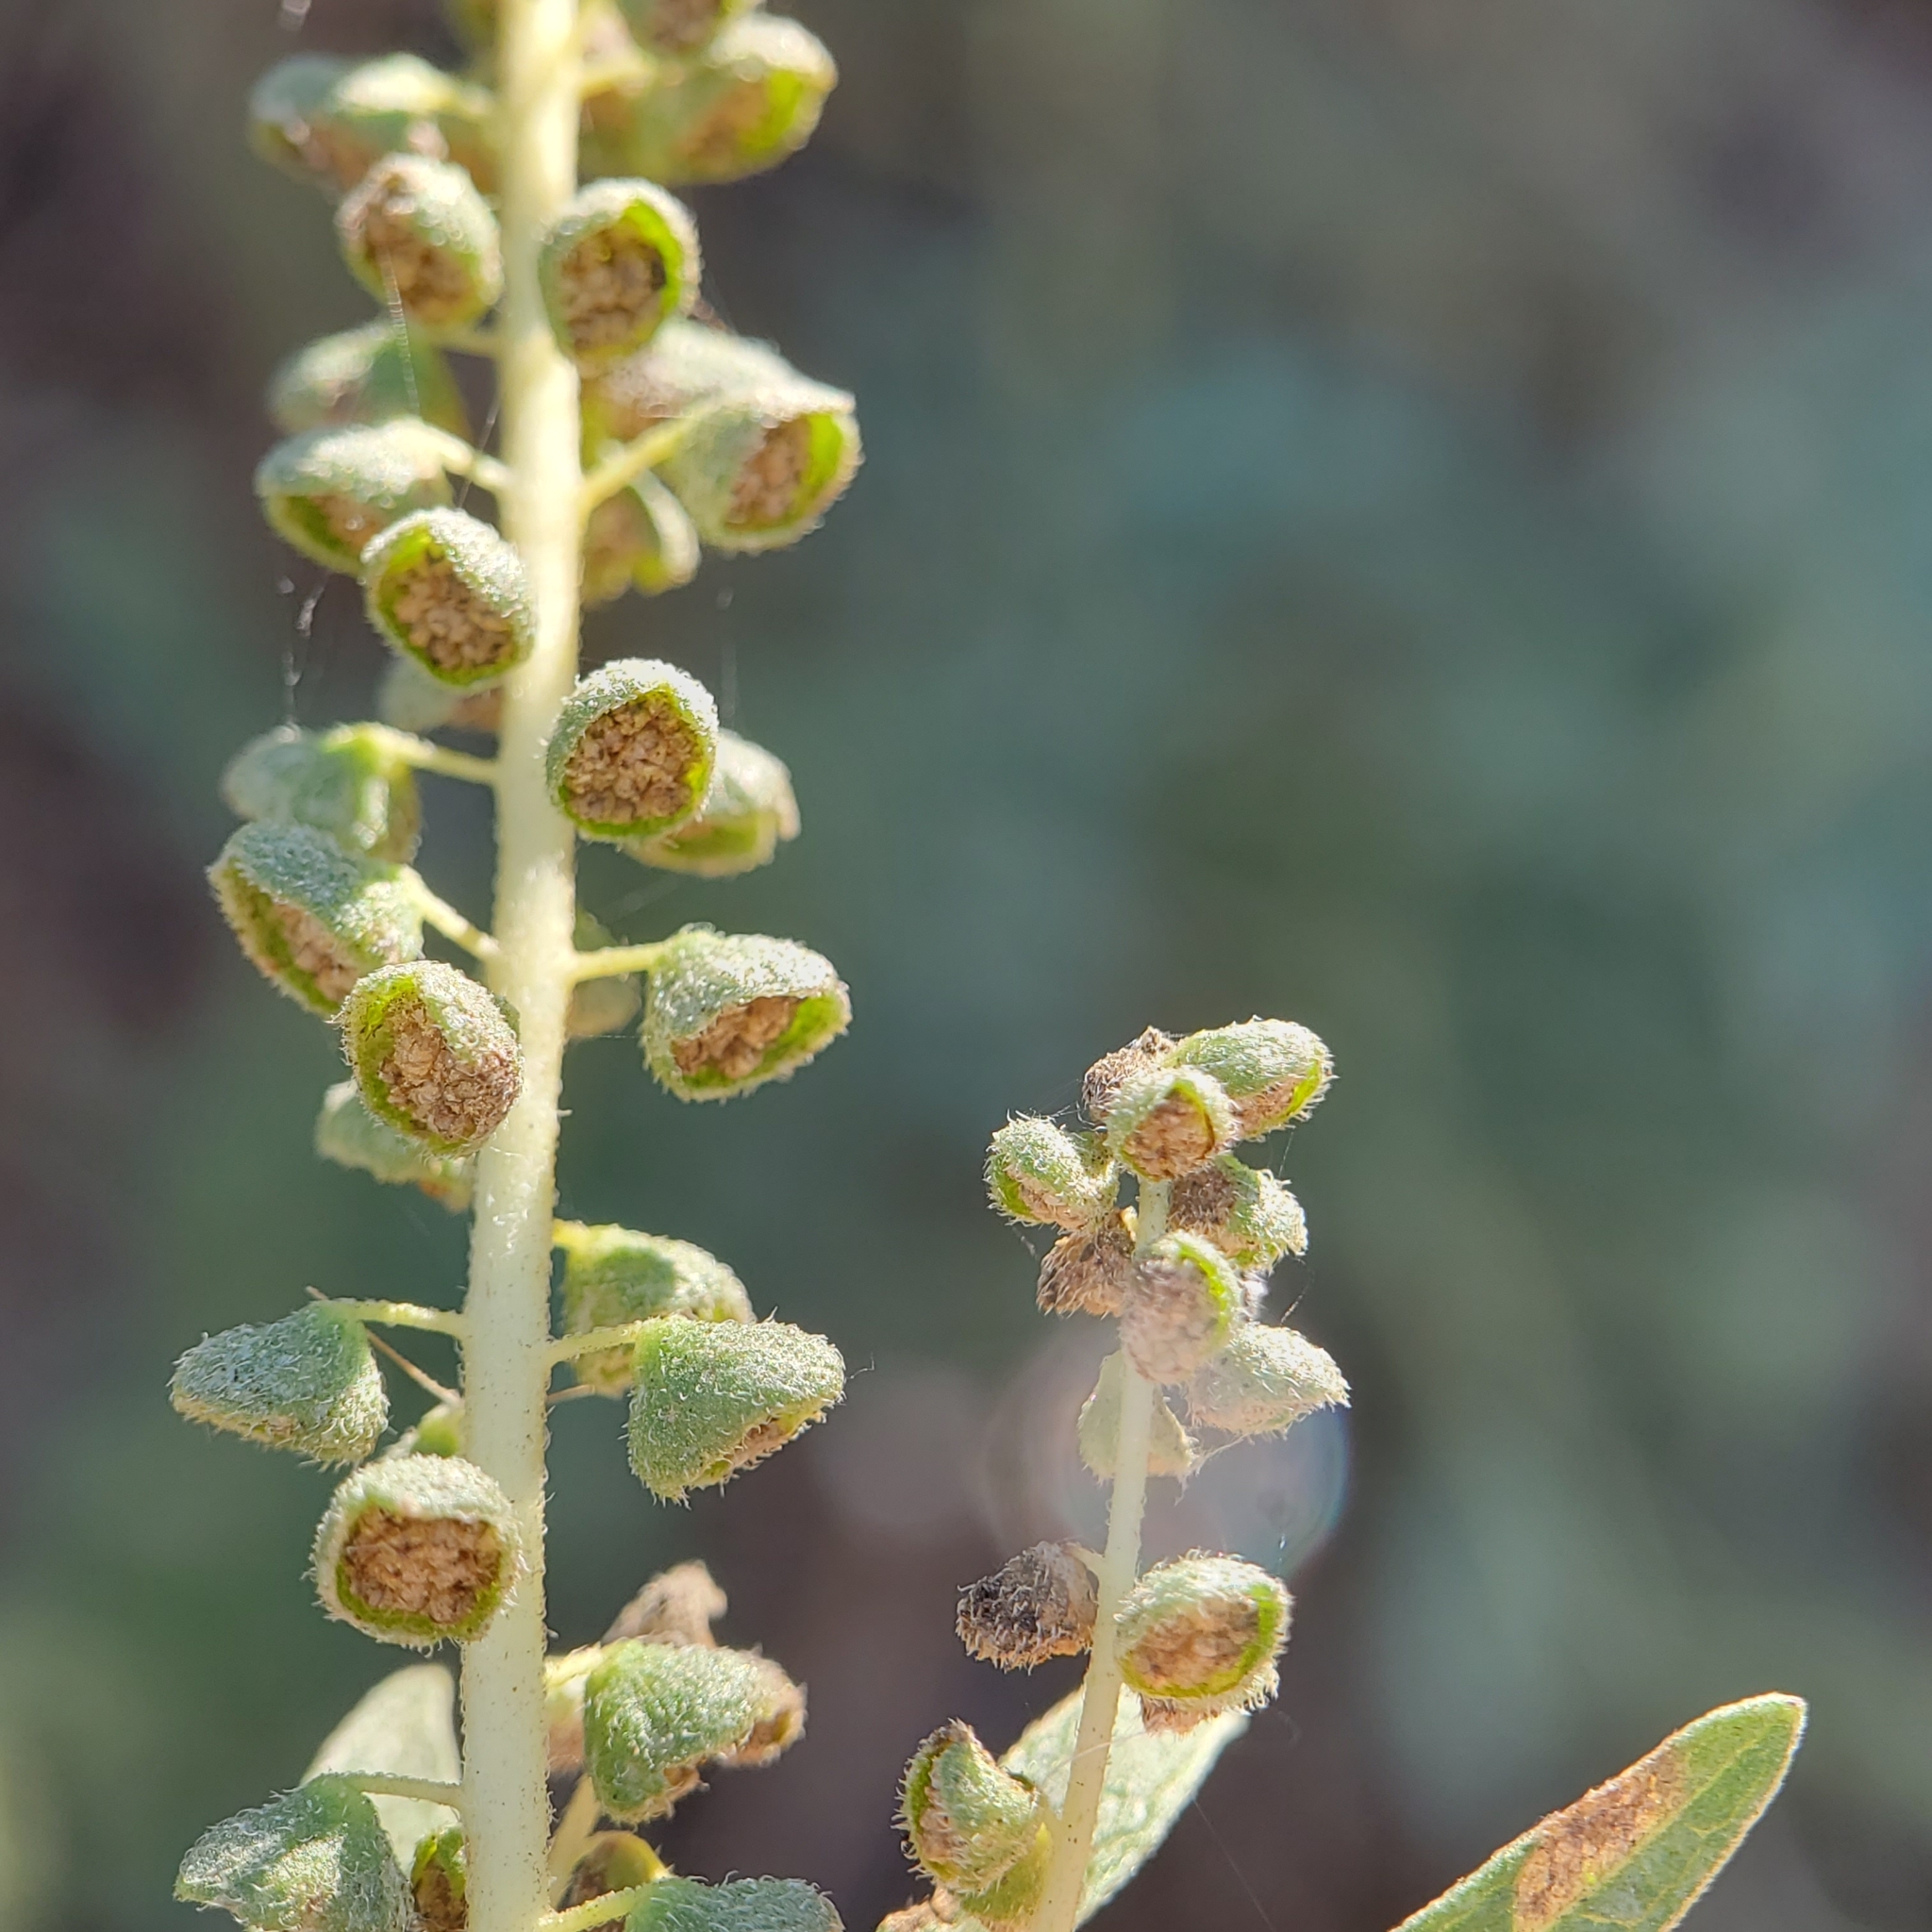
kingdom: Plantae
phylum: Tracheophyta
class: Magnoliopsida
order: Asterales
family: Asteraceae
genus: Ambrosia
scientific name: Ambrosia psilostachya
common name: Perennial ragweed
